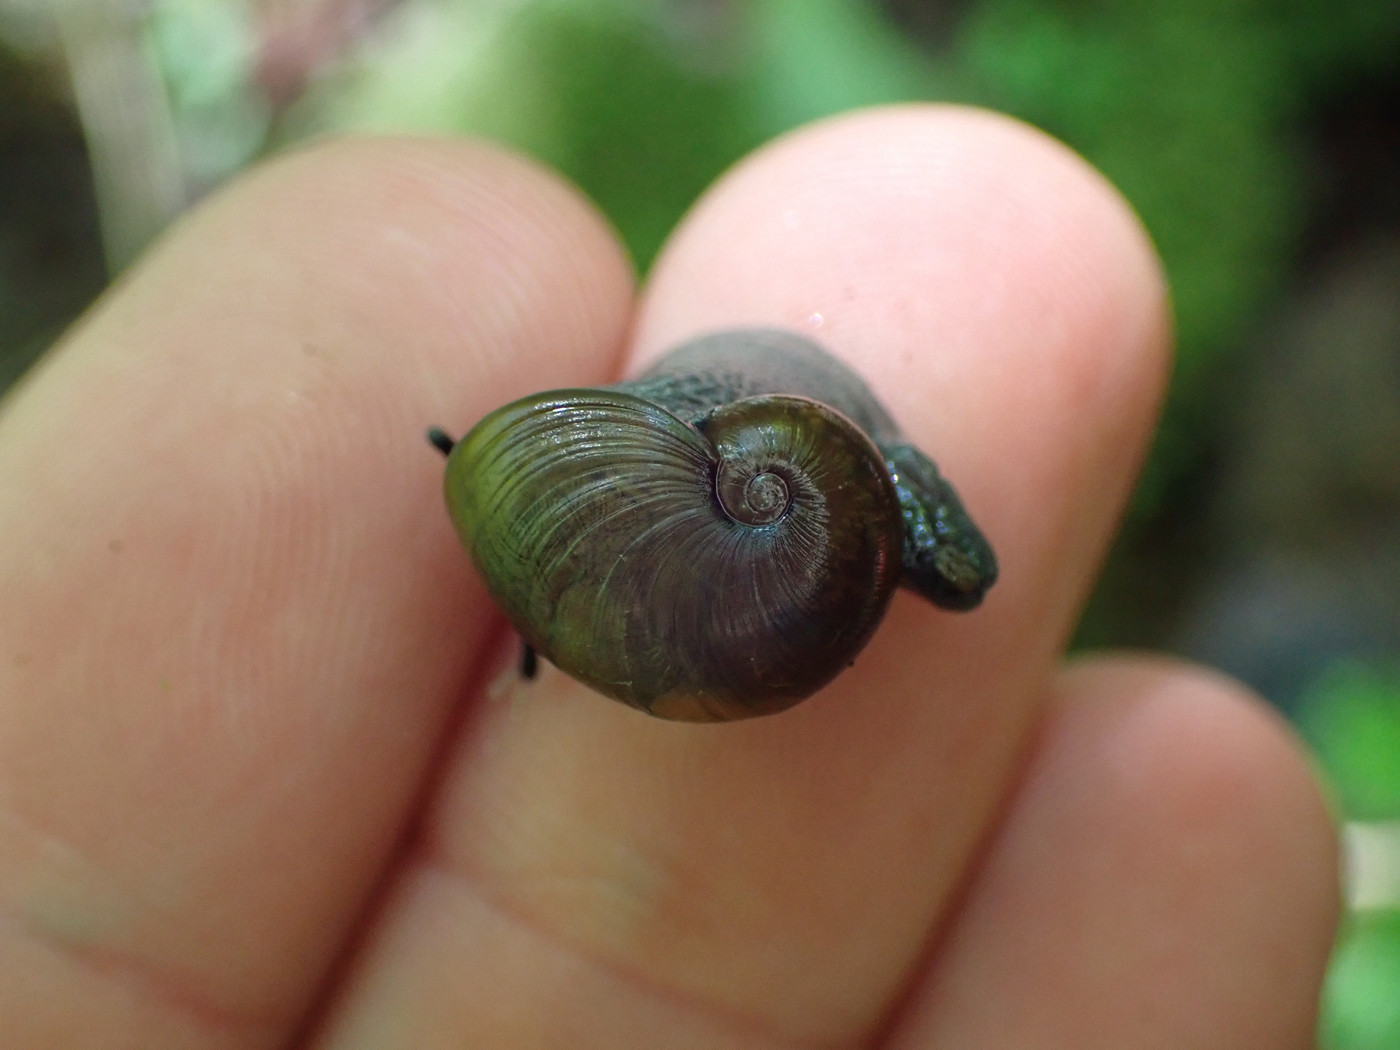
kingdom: Animalia
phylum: Mollusca
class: Gastropoda
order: Stylommatophora
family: Gastrodontidae
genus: Vitrinizonites
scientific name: Vitrinizonites latissimus
